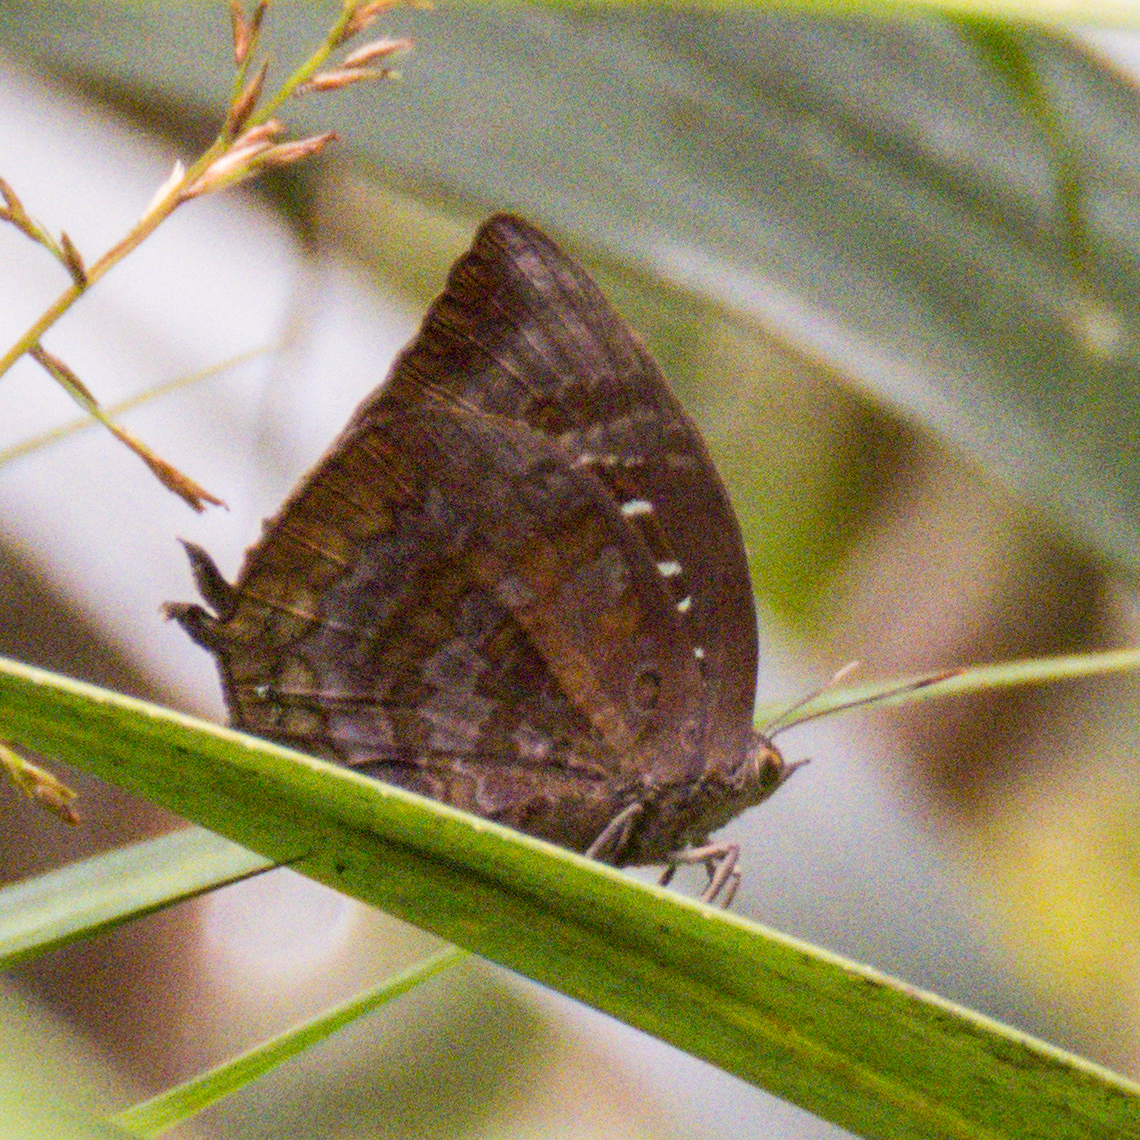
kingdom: Animalia
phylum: Arthropoda
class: Insecta
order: Lepidoptera
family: Lycaenidae
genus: Arhopala
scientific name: Arhopala centaurus
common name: Dull oak-blue
